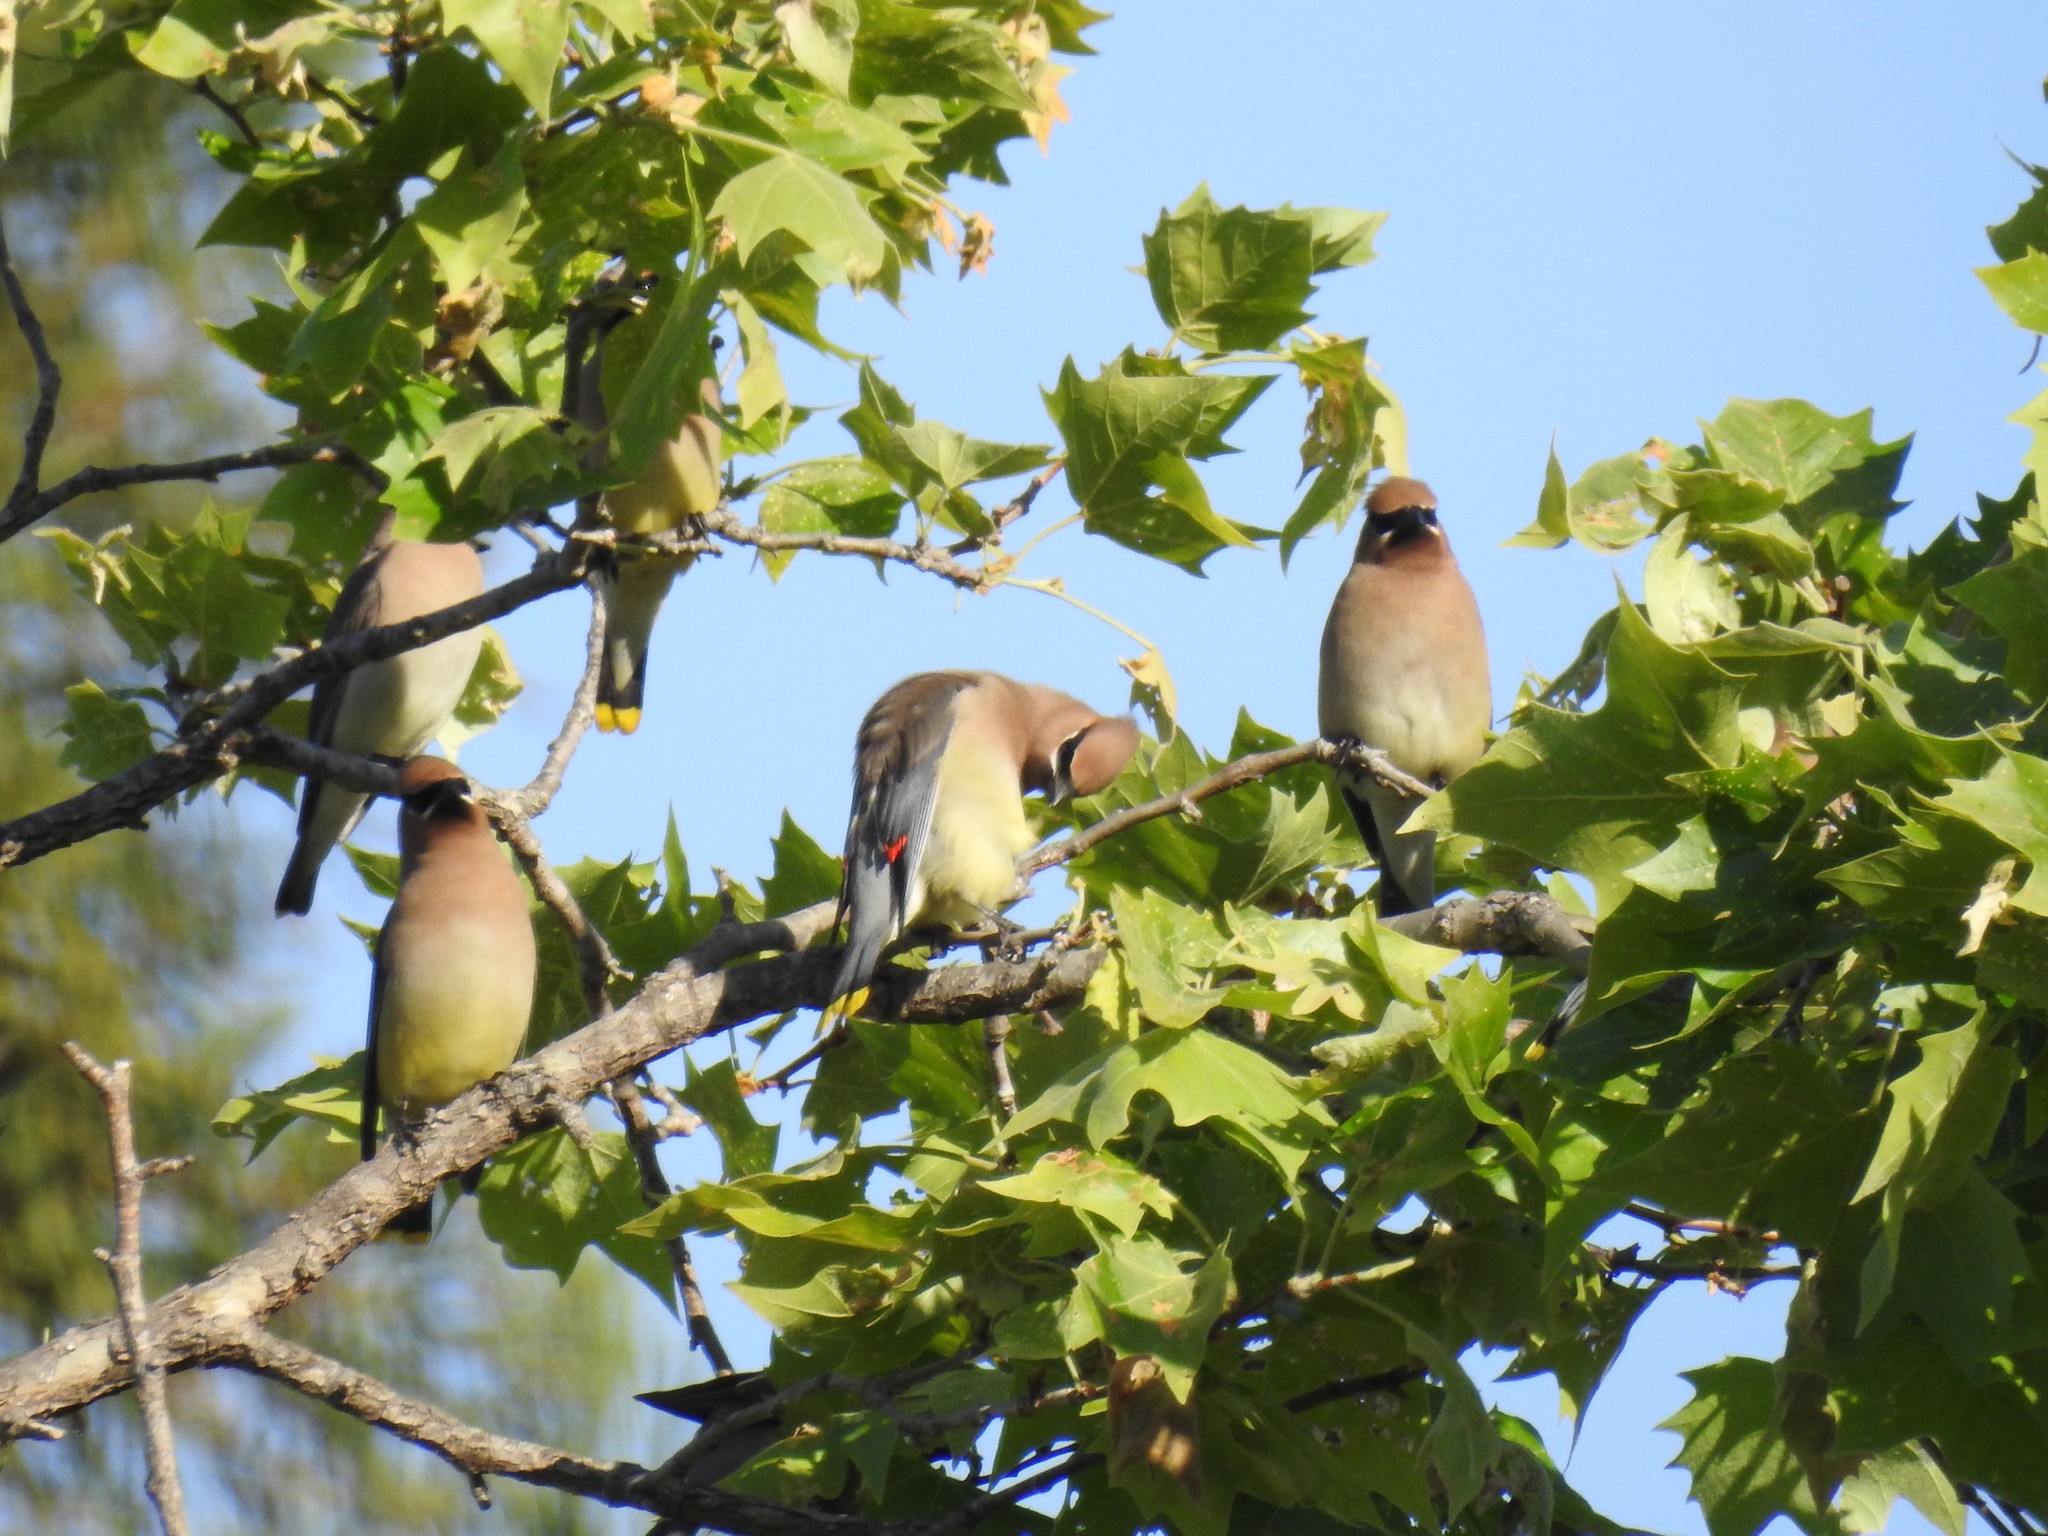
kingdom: Animalia
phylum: Chordata
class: Aves
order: Passeriformes
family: Bombycillidae
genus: Bombycilla
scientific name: Bombycilla cedrorum
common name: Cedar waxwing
